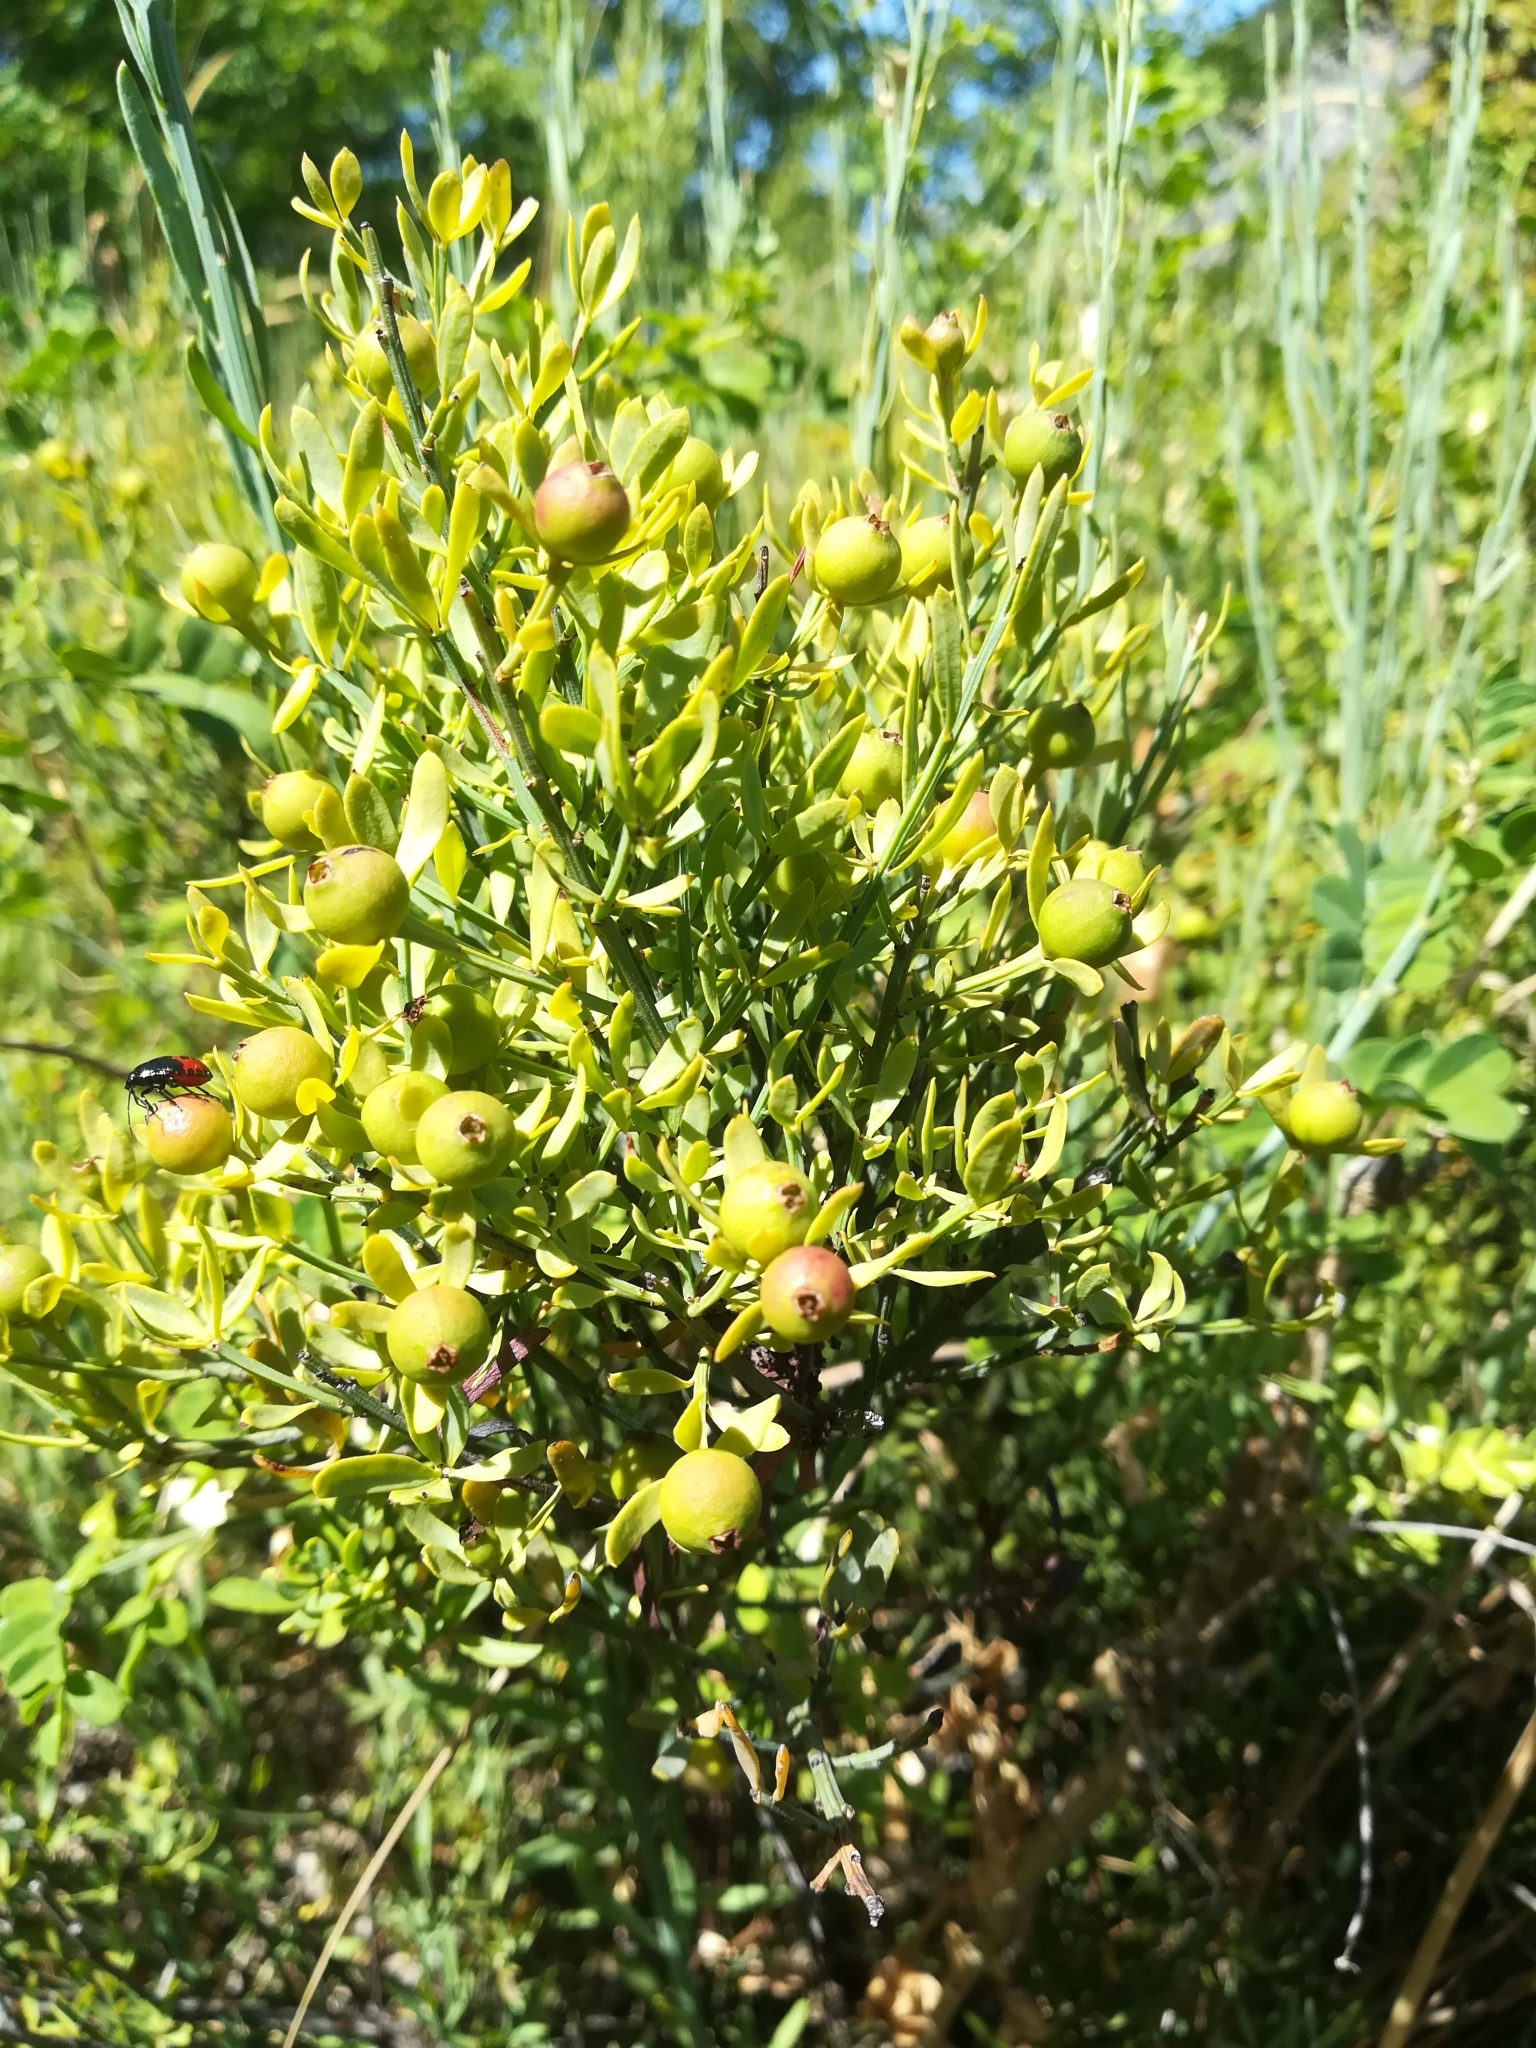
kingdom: Plantae
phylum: Tracheophyta
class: Magnoliopsida
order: Santalales
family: Santalaceae
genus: Osyris
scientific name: Osyris alba
